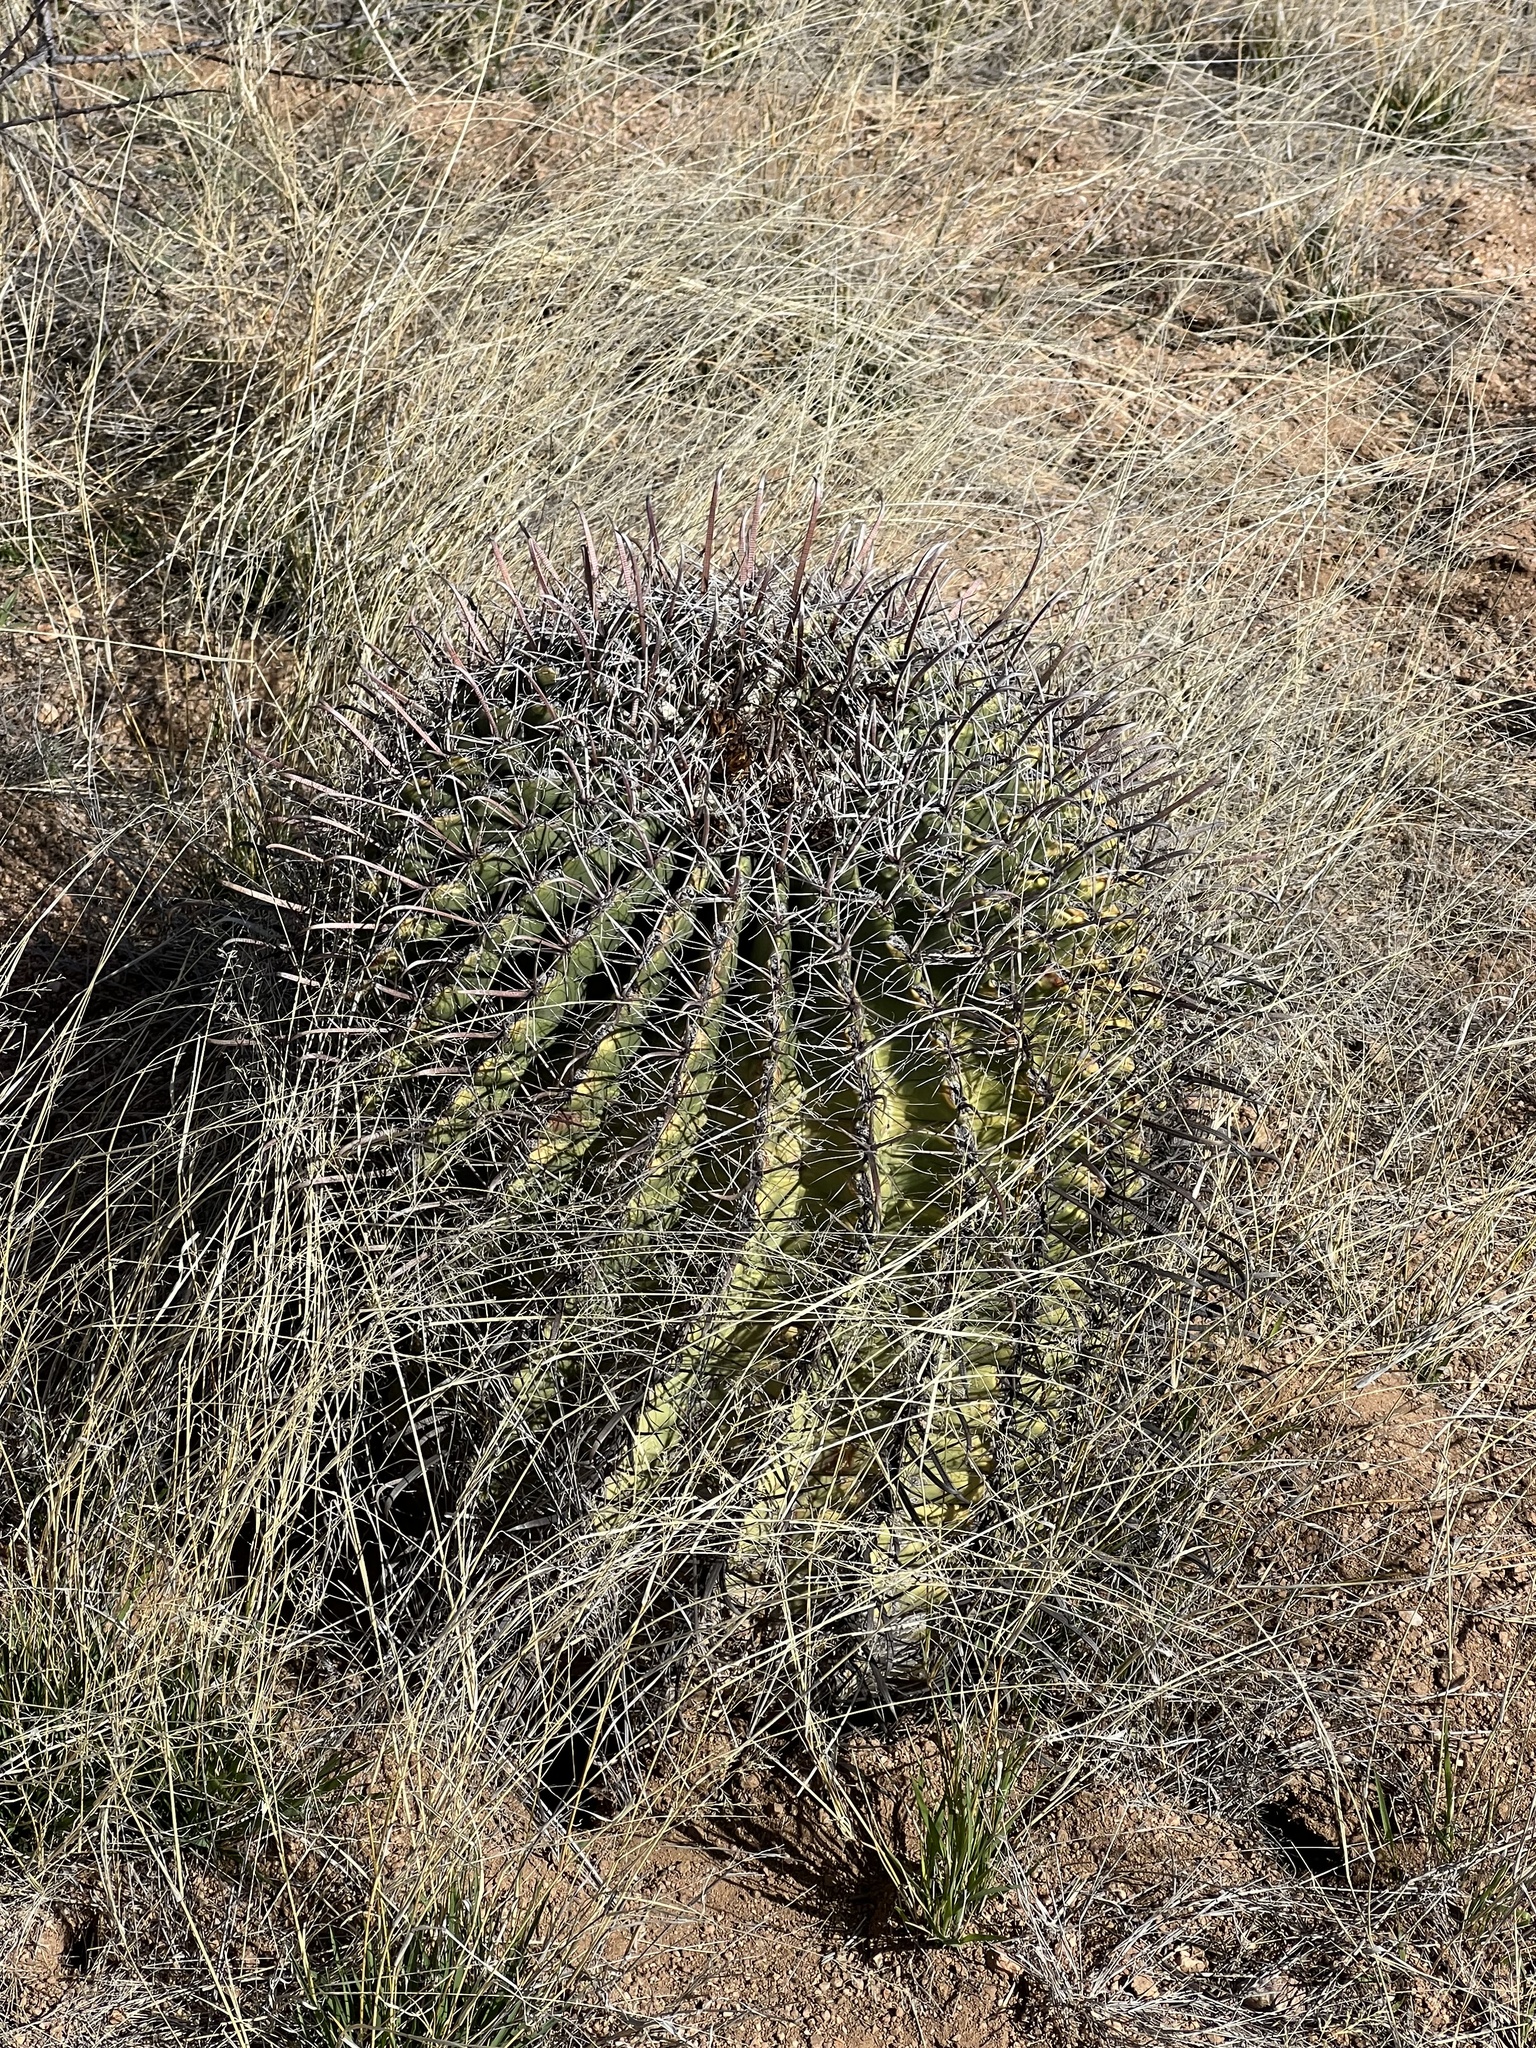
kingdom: Plantae
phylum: Tracheophyta
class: Magnoliopsida
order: Caryophyllales
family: Cactaceae
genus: Ferocactus
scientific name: Ferocactus wislizeni
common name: Candy barrel cactus
